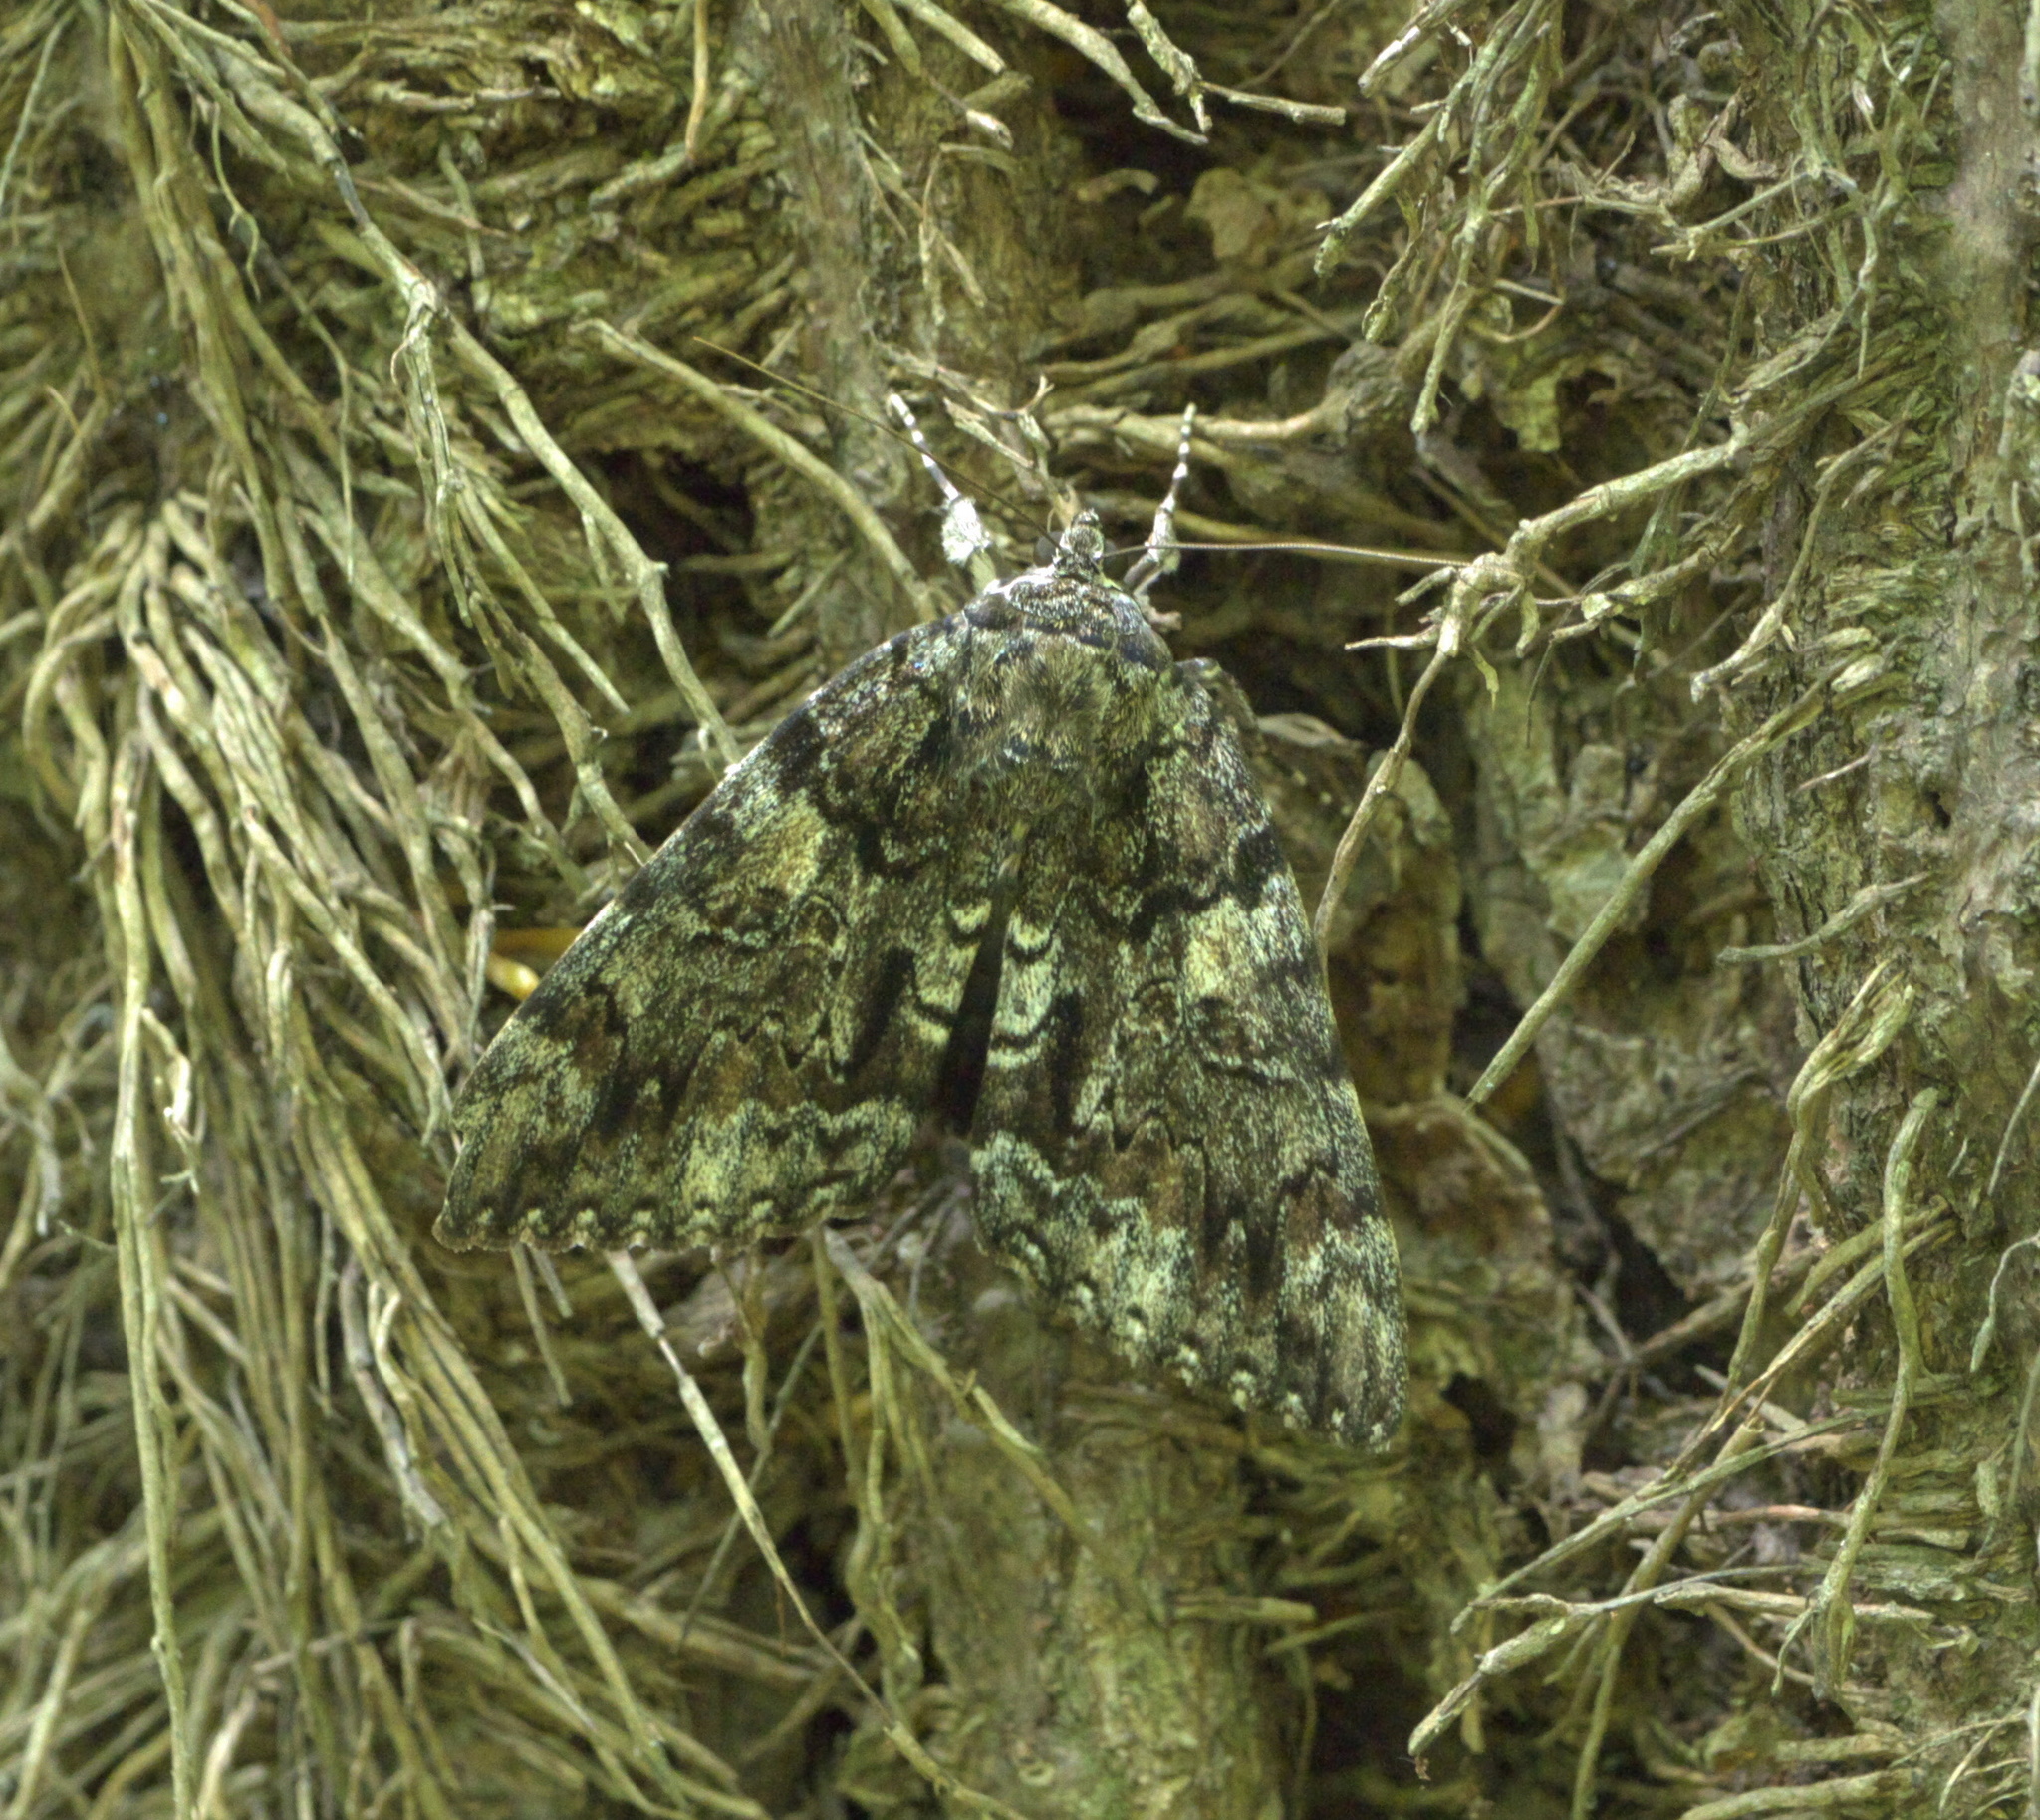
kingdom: Animalia
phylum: Arthropoda
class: Insecta
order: Lepidoptera
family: Erebidae
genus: Catocala
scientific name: Catocala lacrymosa
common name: Tearful underwing
